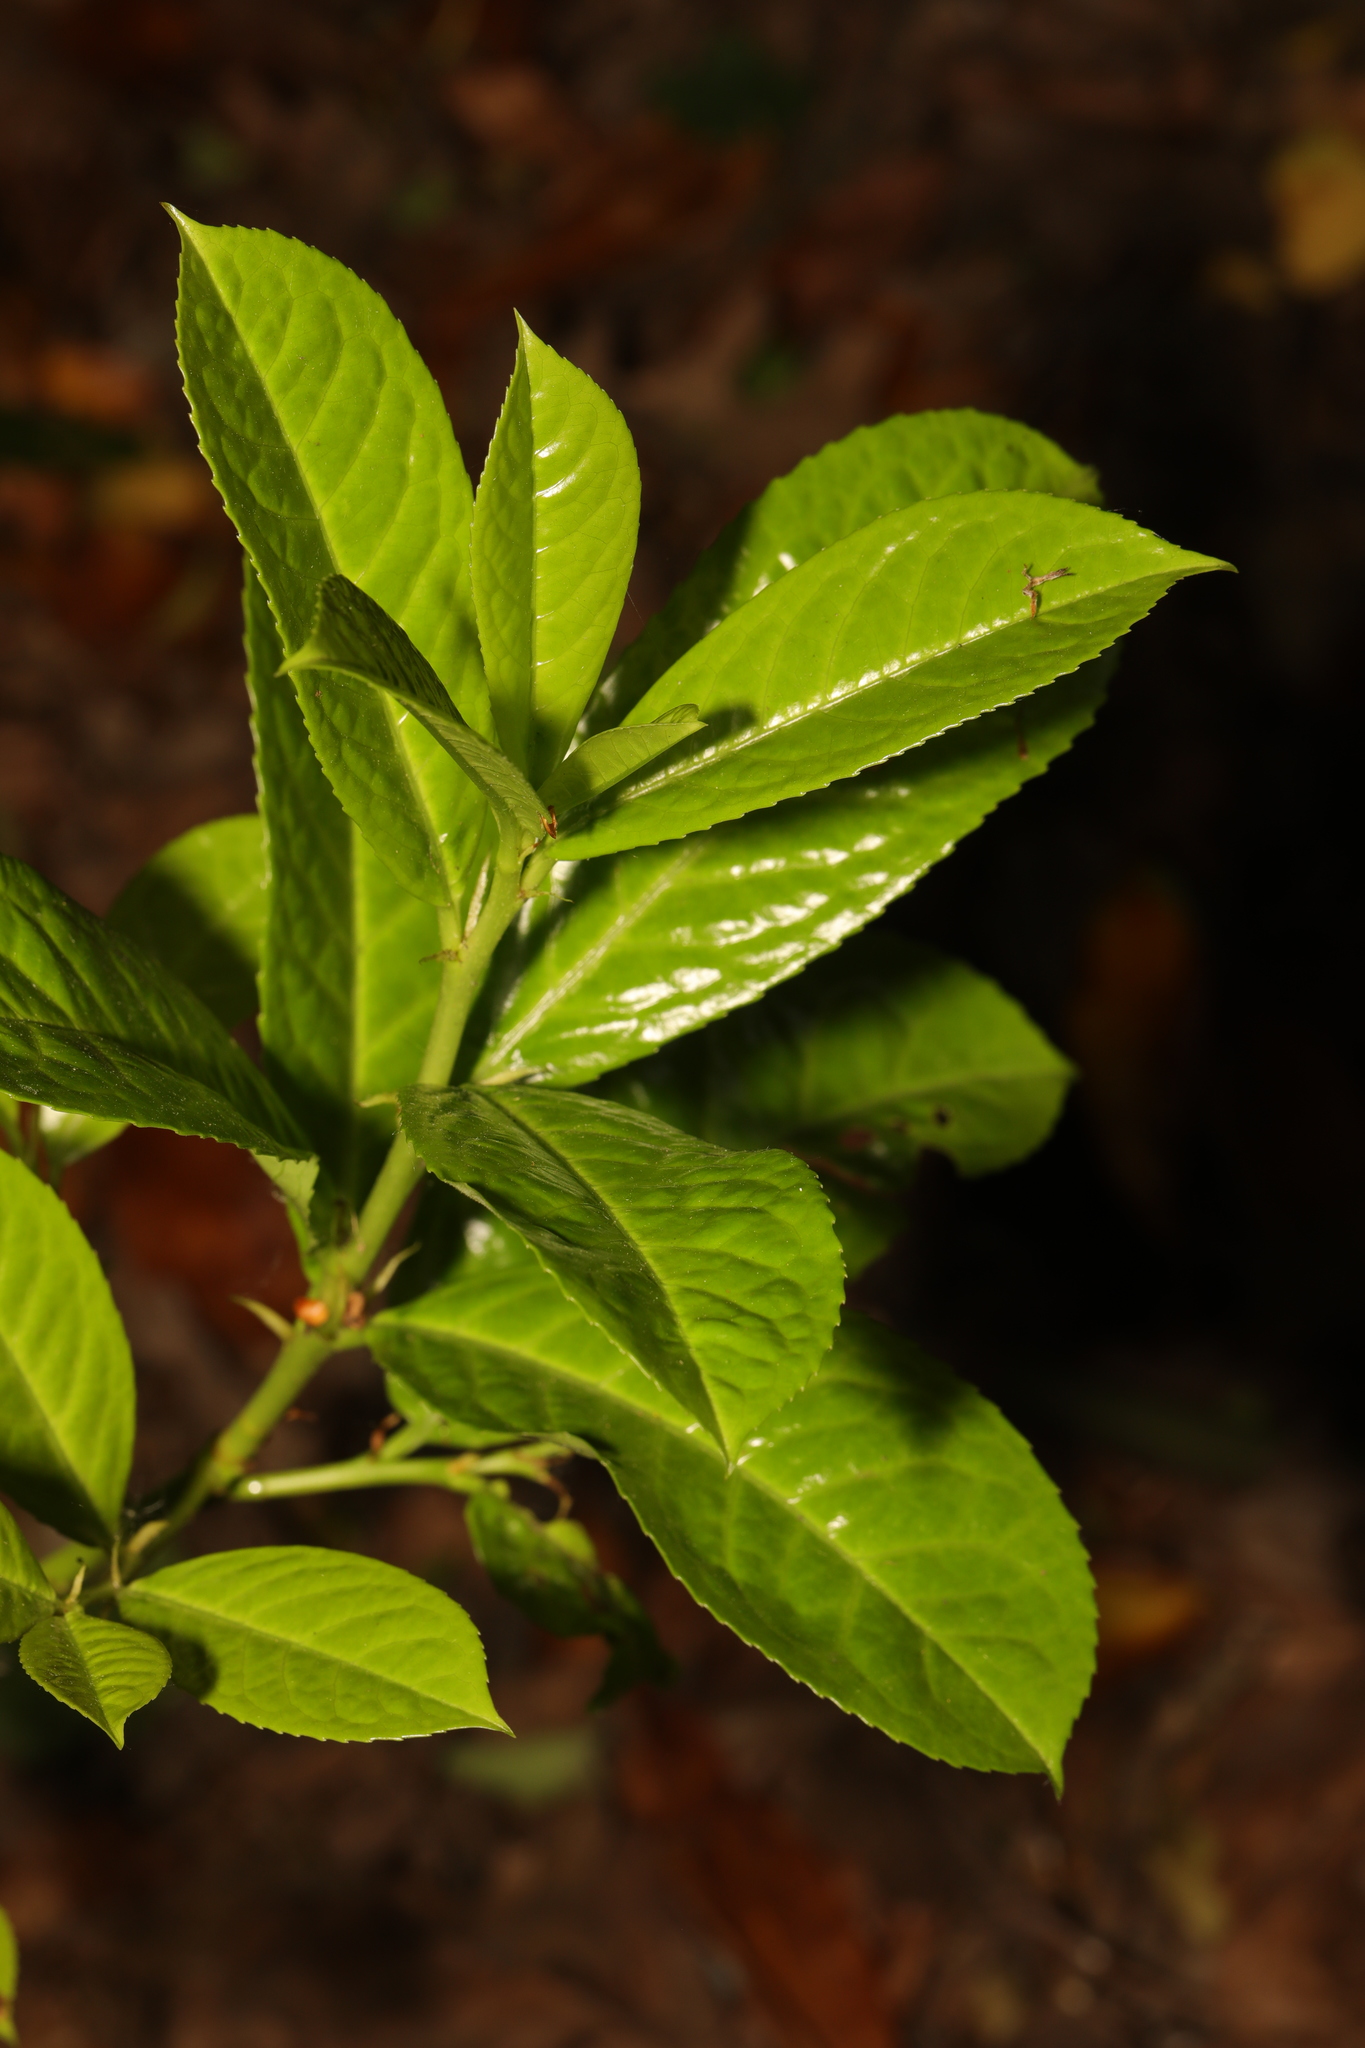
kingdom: Plantae
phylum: Tracheophyta
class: Magnoliopsida
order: Rosales
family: Rosaceae
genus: Prunus
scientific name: Prunus laurocerasus
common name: Cherry laurel
